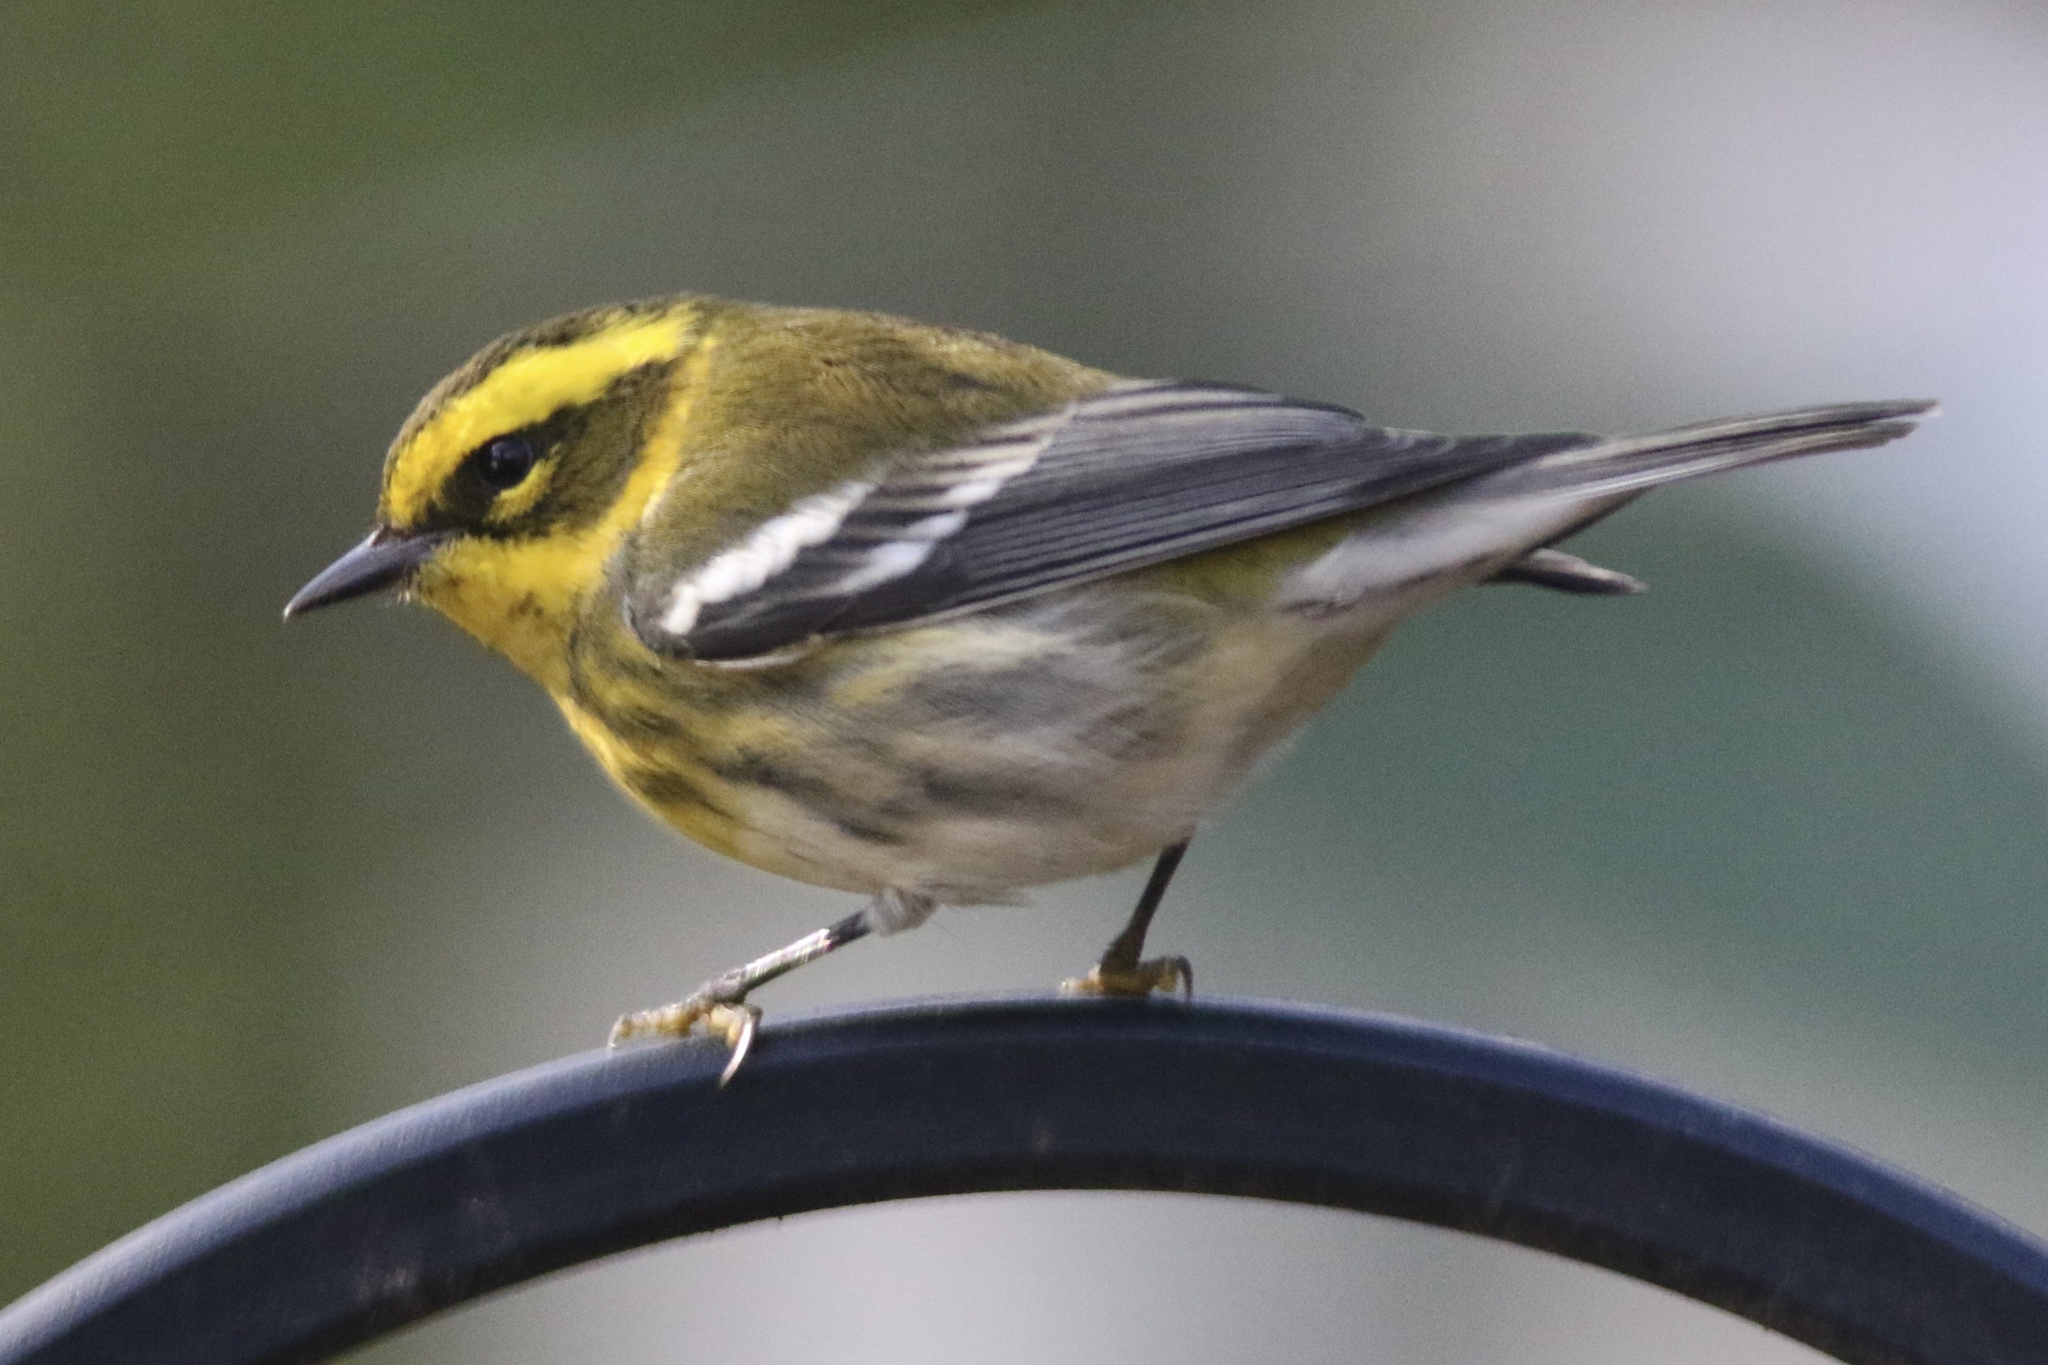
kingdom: Animalia
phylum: Chordata
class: Aves
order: Passeriformes
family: Parulidae
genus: Setophaga
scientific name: Setophaga townsendi
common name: Townsend's warbler
